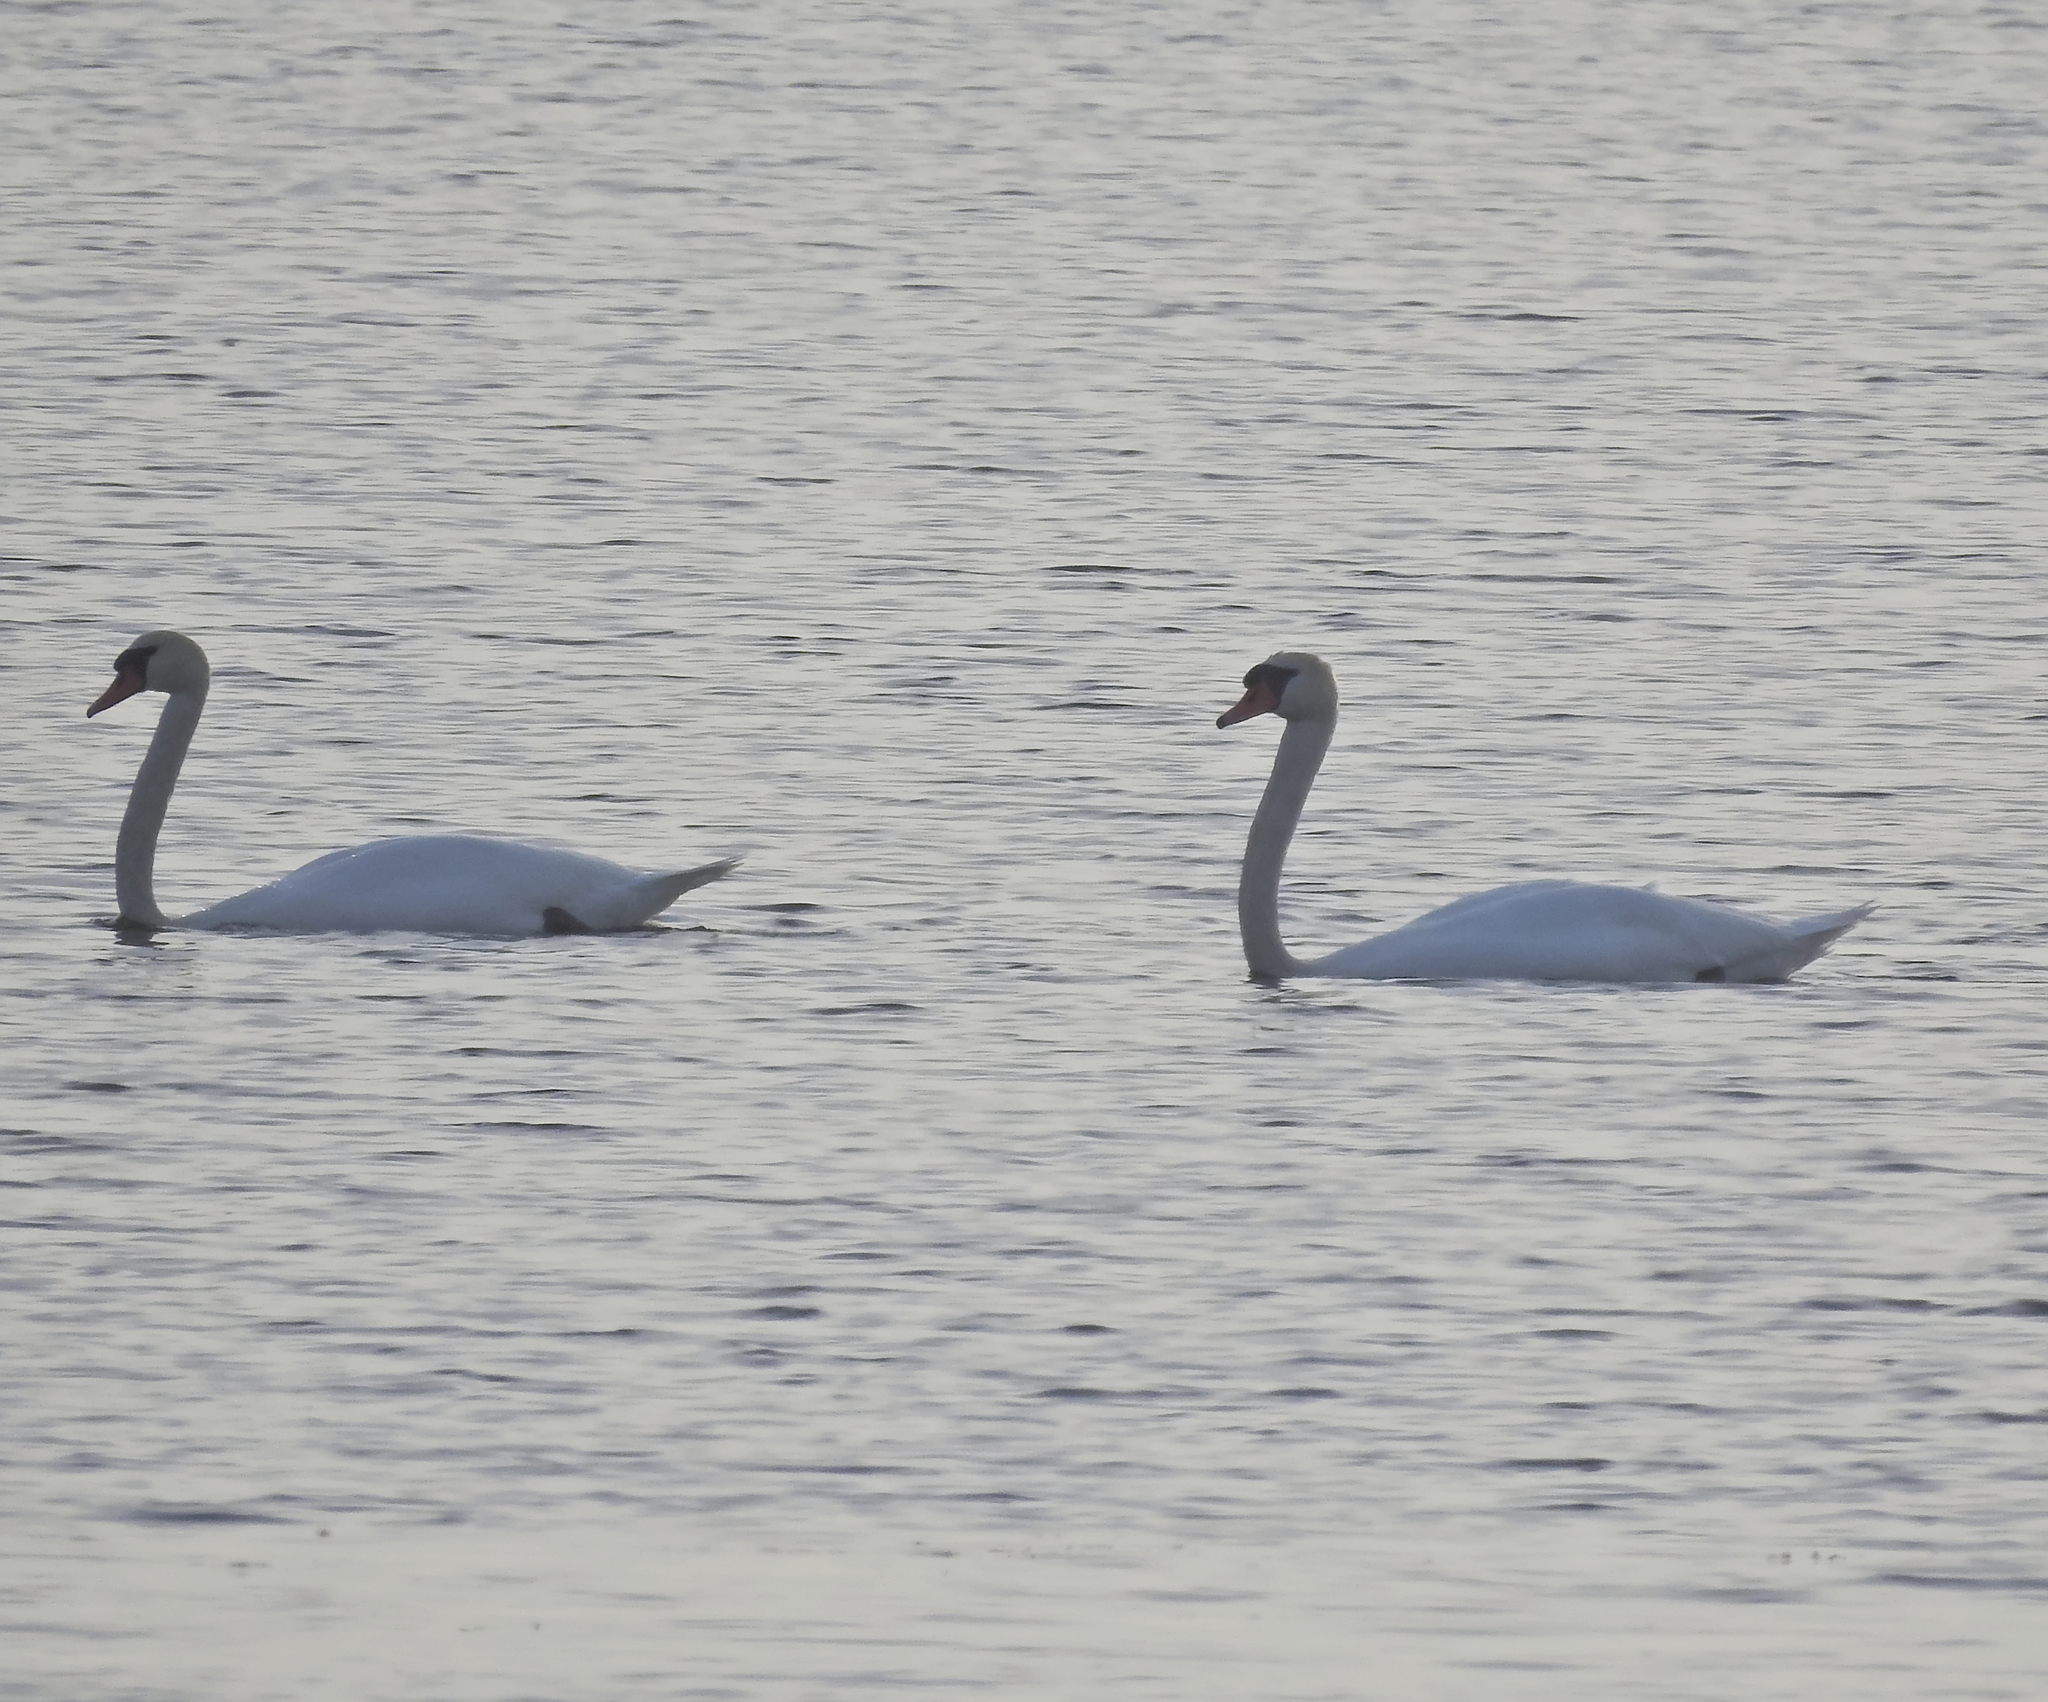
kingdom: Animalia
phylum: Chordata
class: Aves
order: Anseriformes
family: Anatidae
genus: Cygnus
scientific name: Cygnus olor
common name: Mute swan
